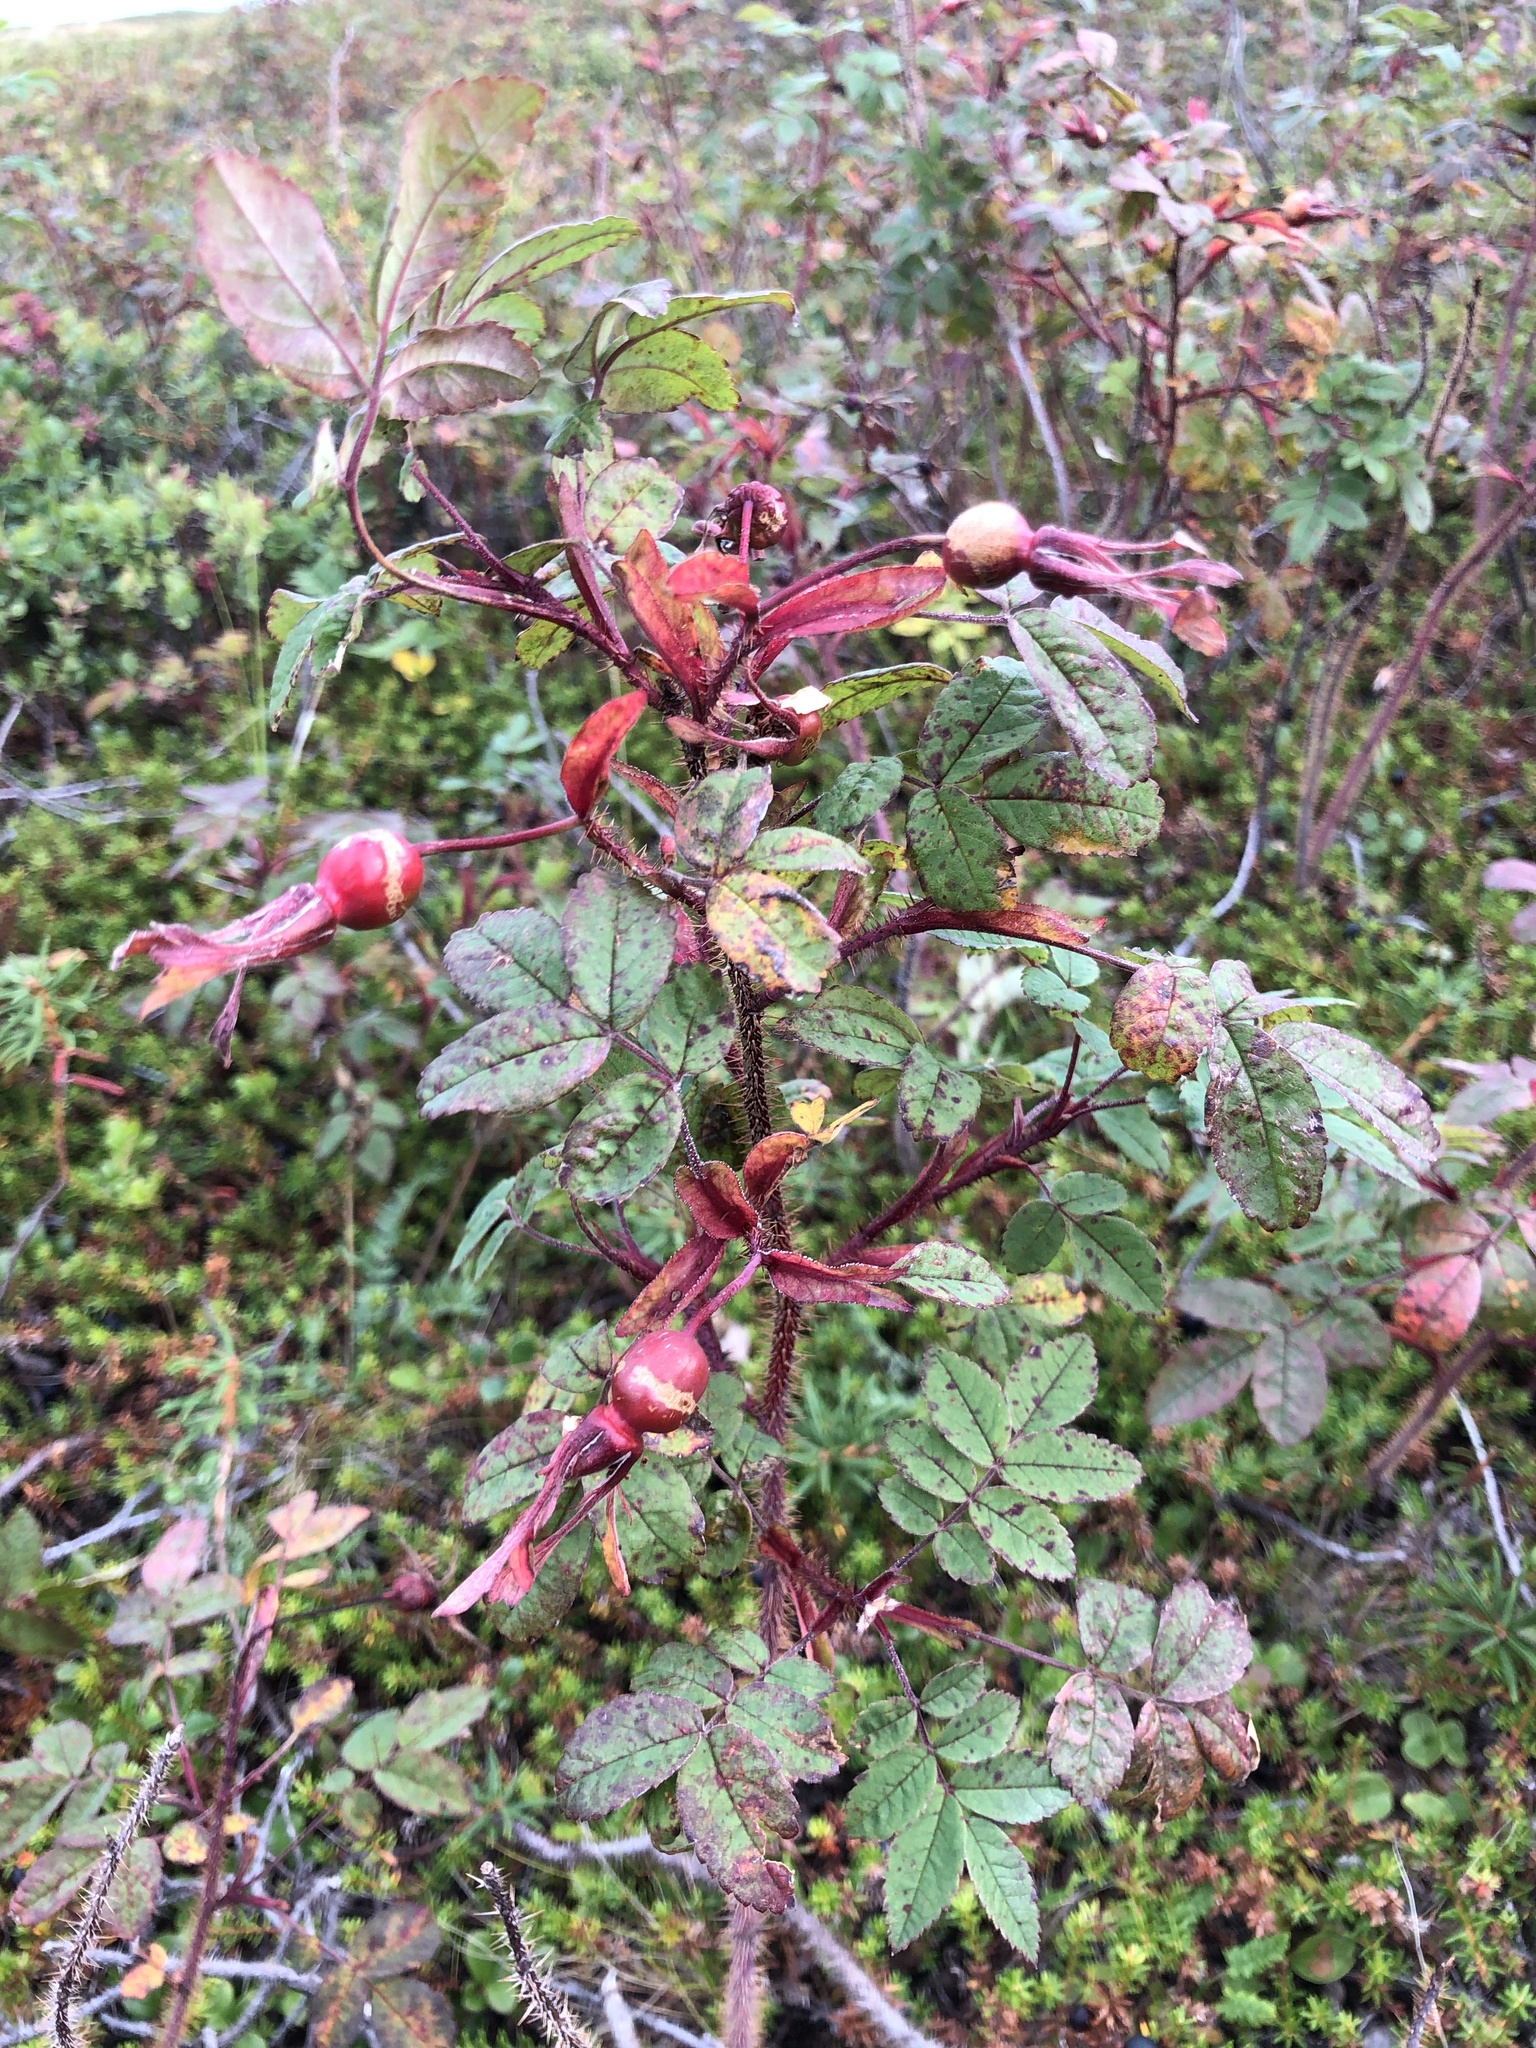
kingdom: Plantae
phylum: Tracheophyta
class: Magnoliopsida
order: Rosales
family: Rosaceae
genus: Rosa
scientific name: Rosa acicularis
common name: Prickly rose
